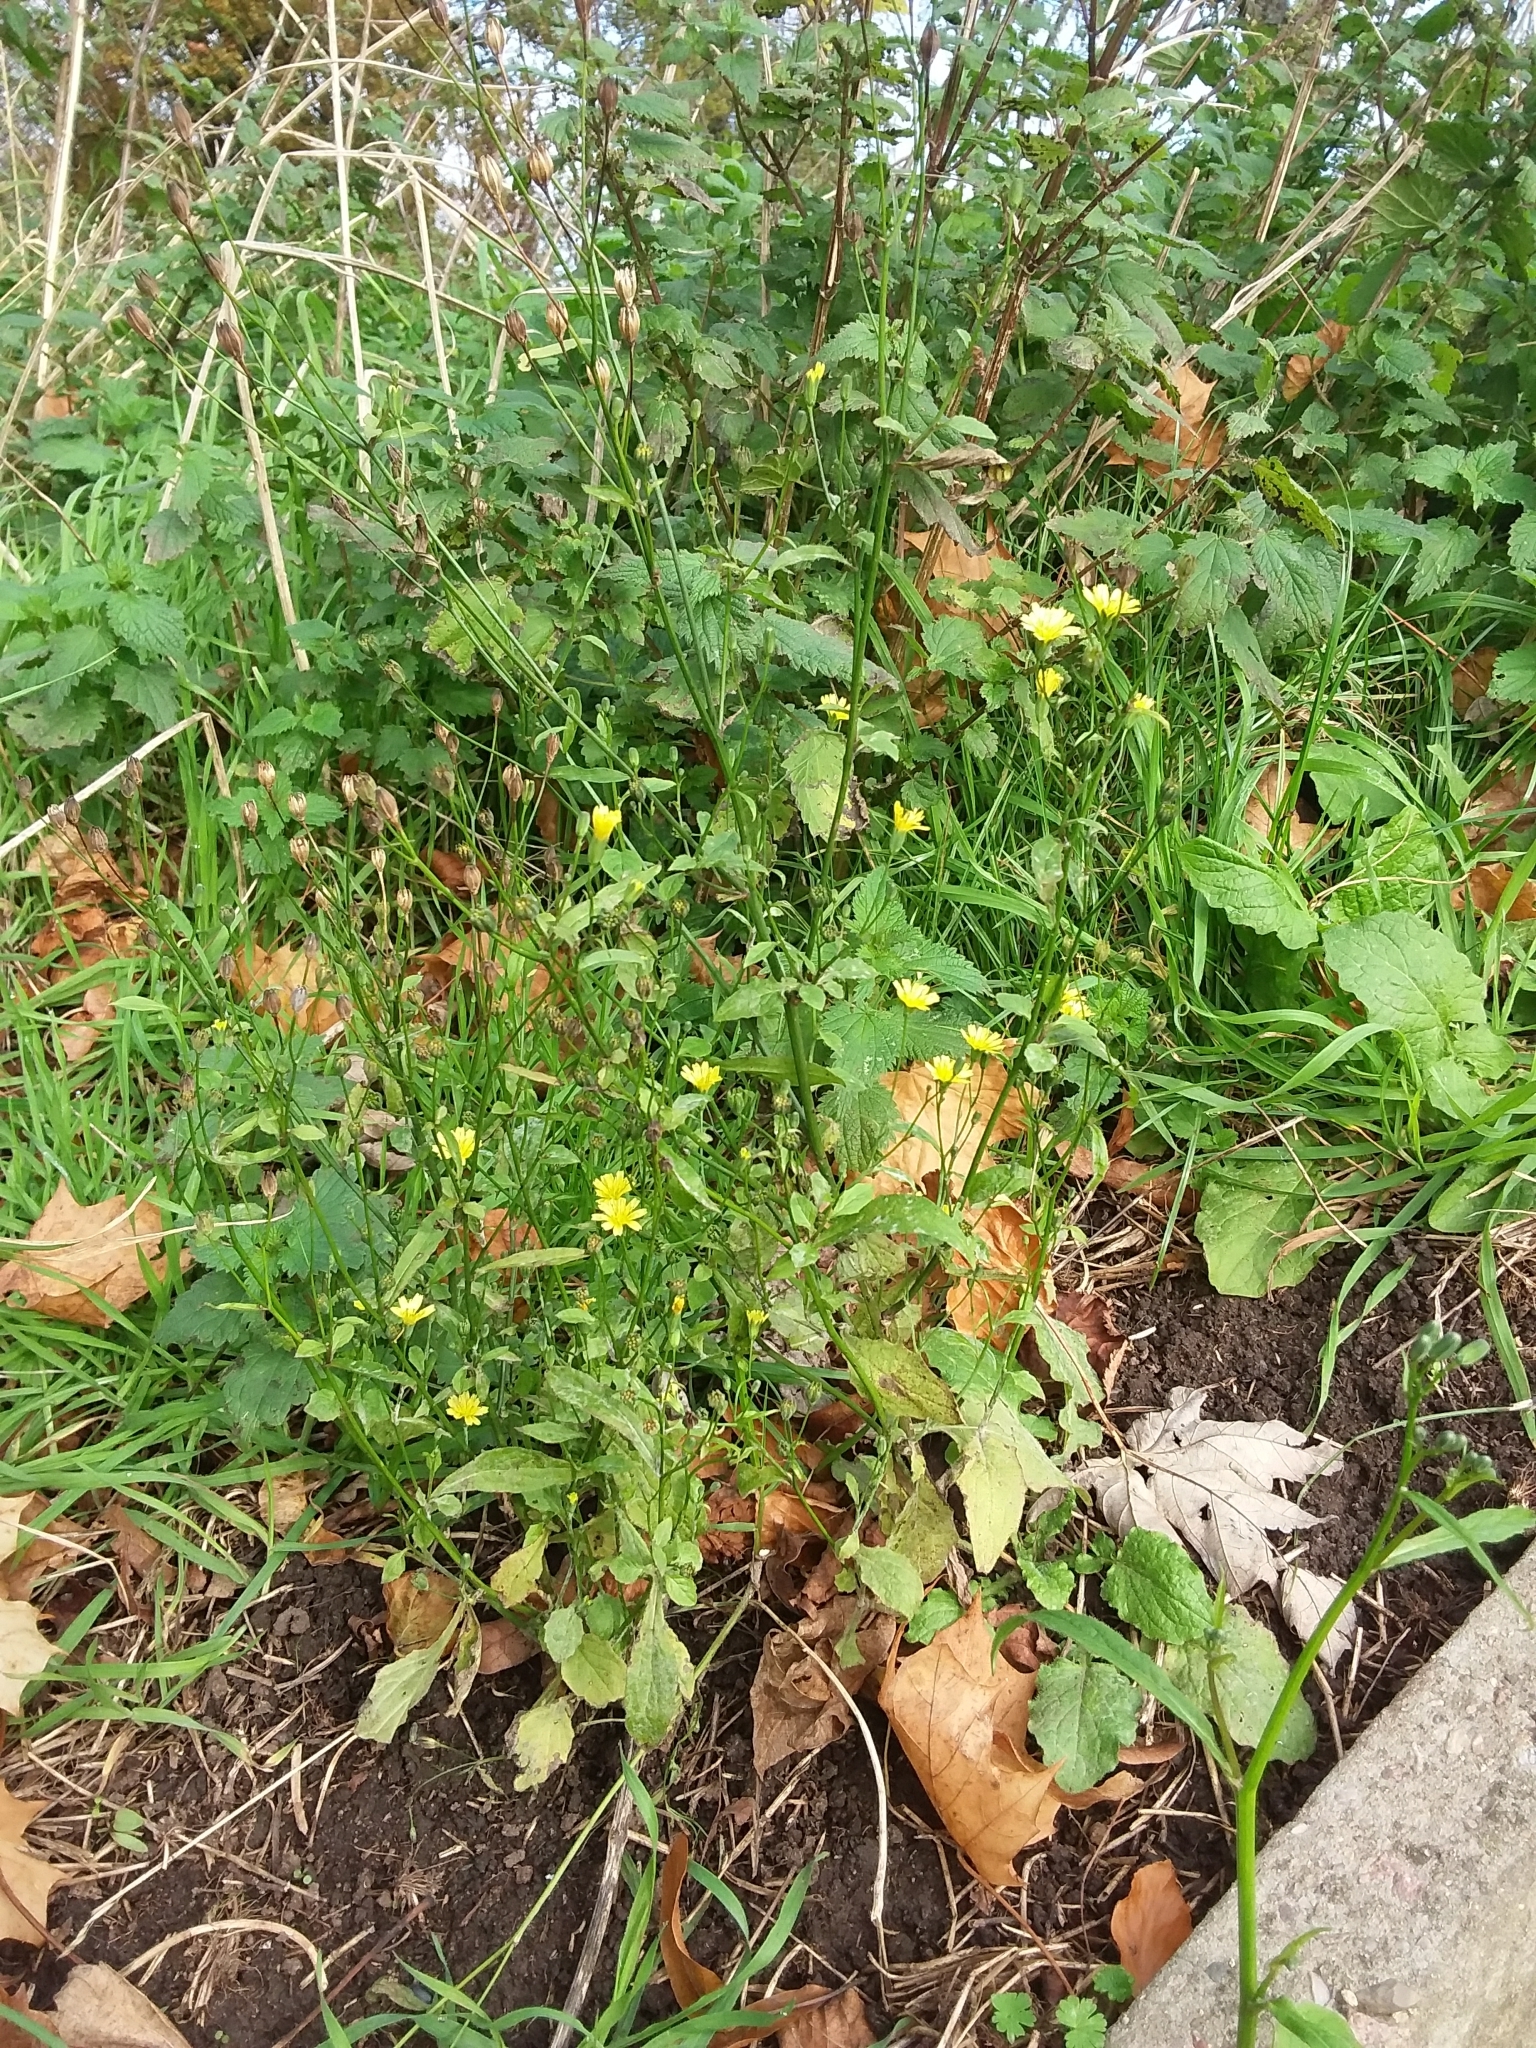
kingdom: Plantae
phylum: Tracheophyta
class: Magnoliopsida
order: Asterales
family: Asteraceae
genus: Lapsana
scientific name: Lapsana communis
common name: Nipplewort
